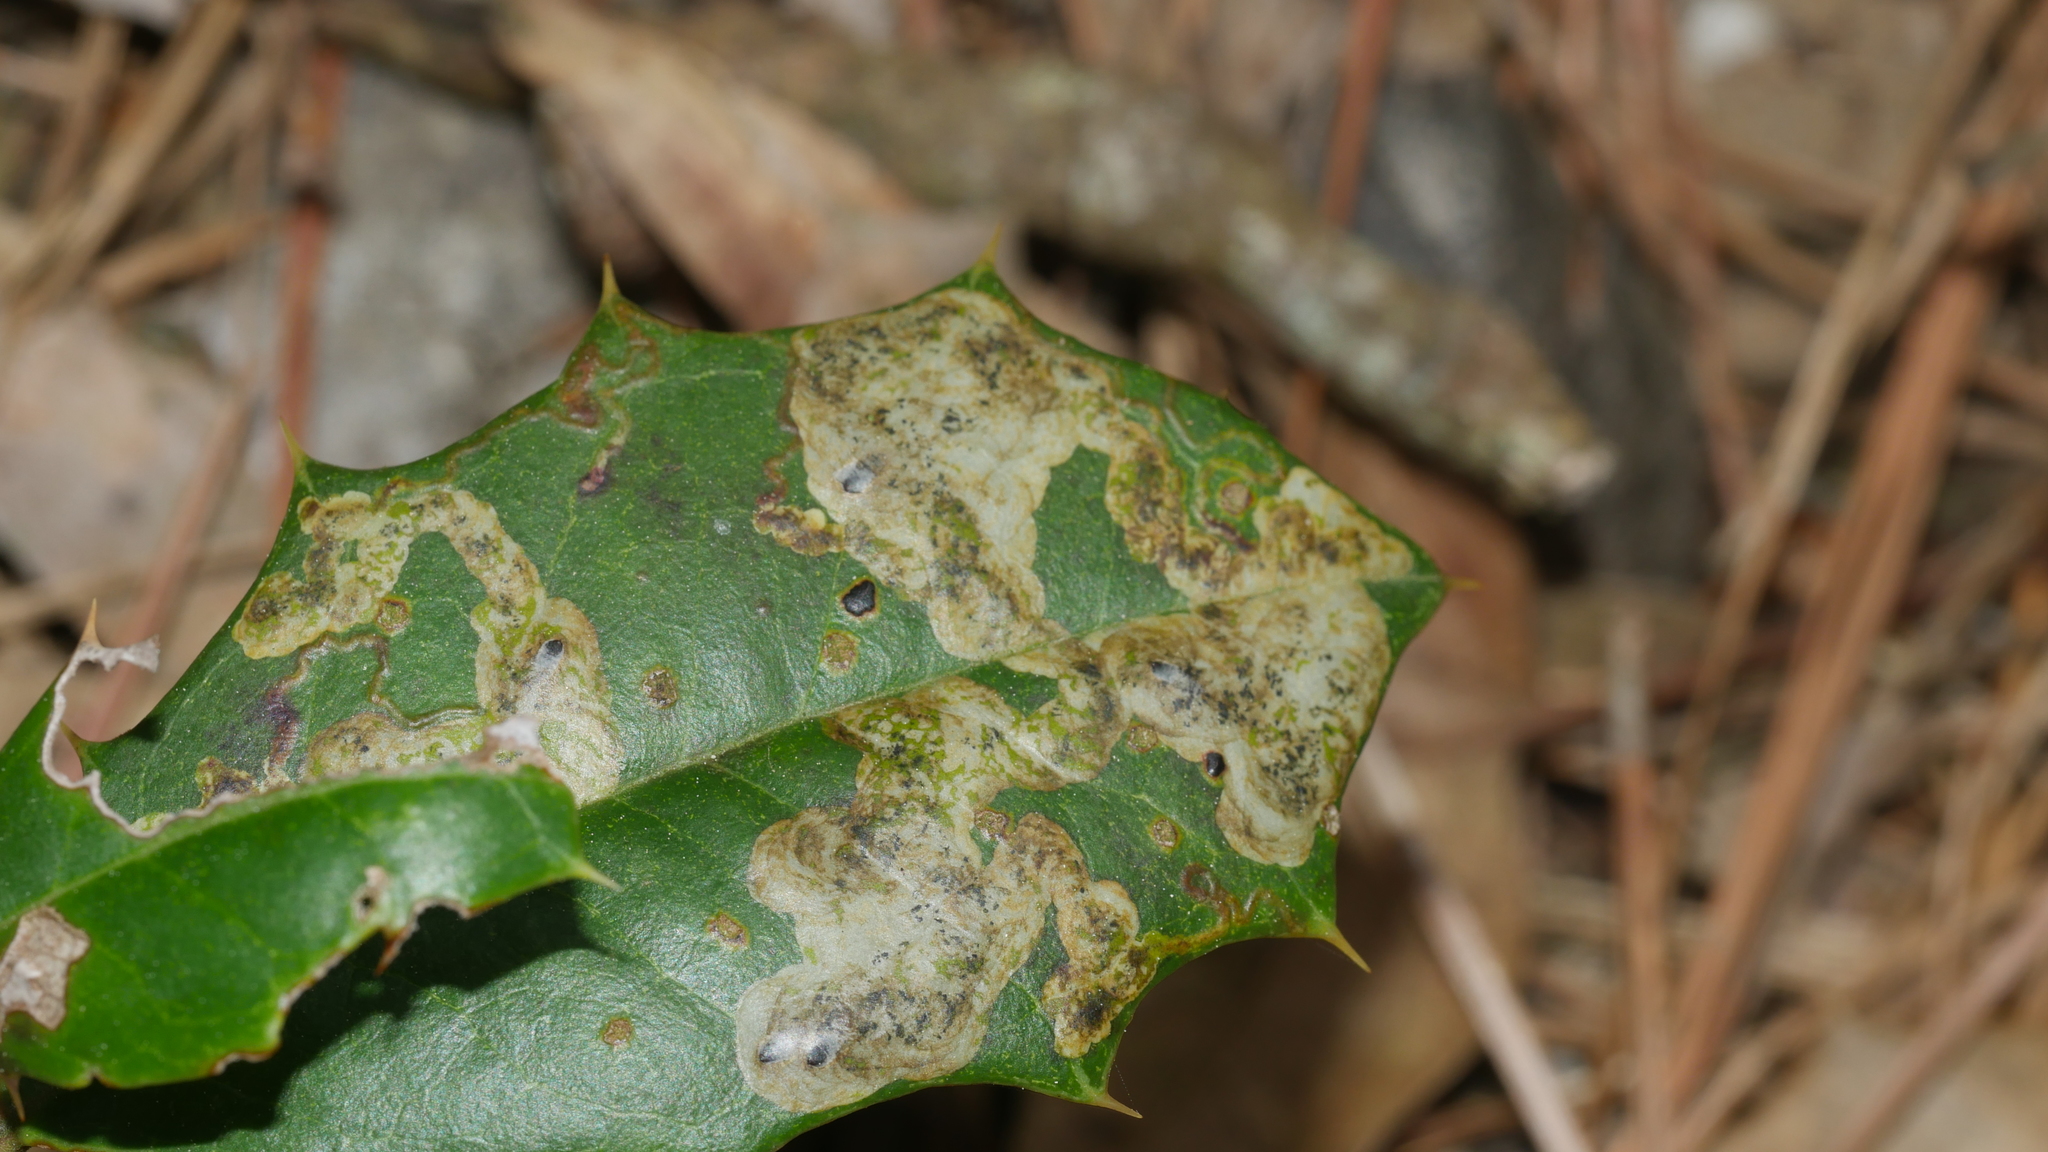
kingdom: Animalia
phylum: Arthropoda
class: Insecta
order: Diptera
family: Agromyzidae
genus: Phytomyza
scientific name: Phytomyza ilicicola
